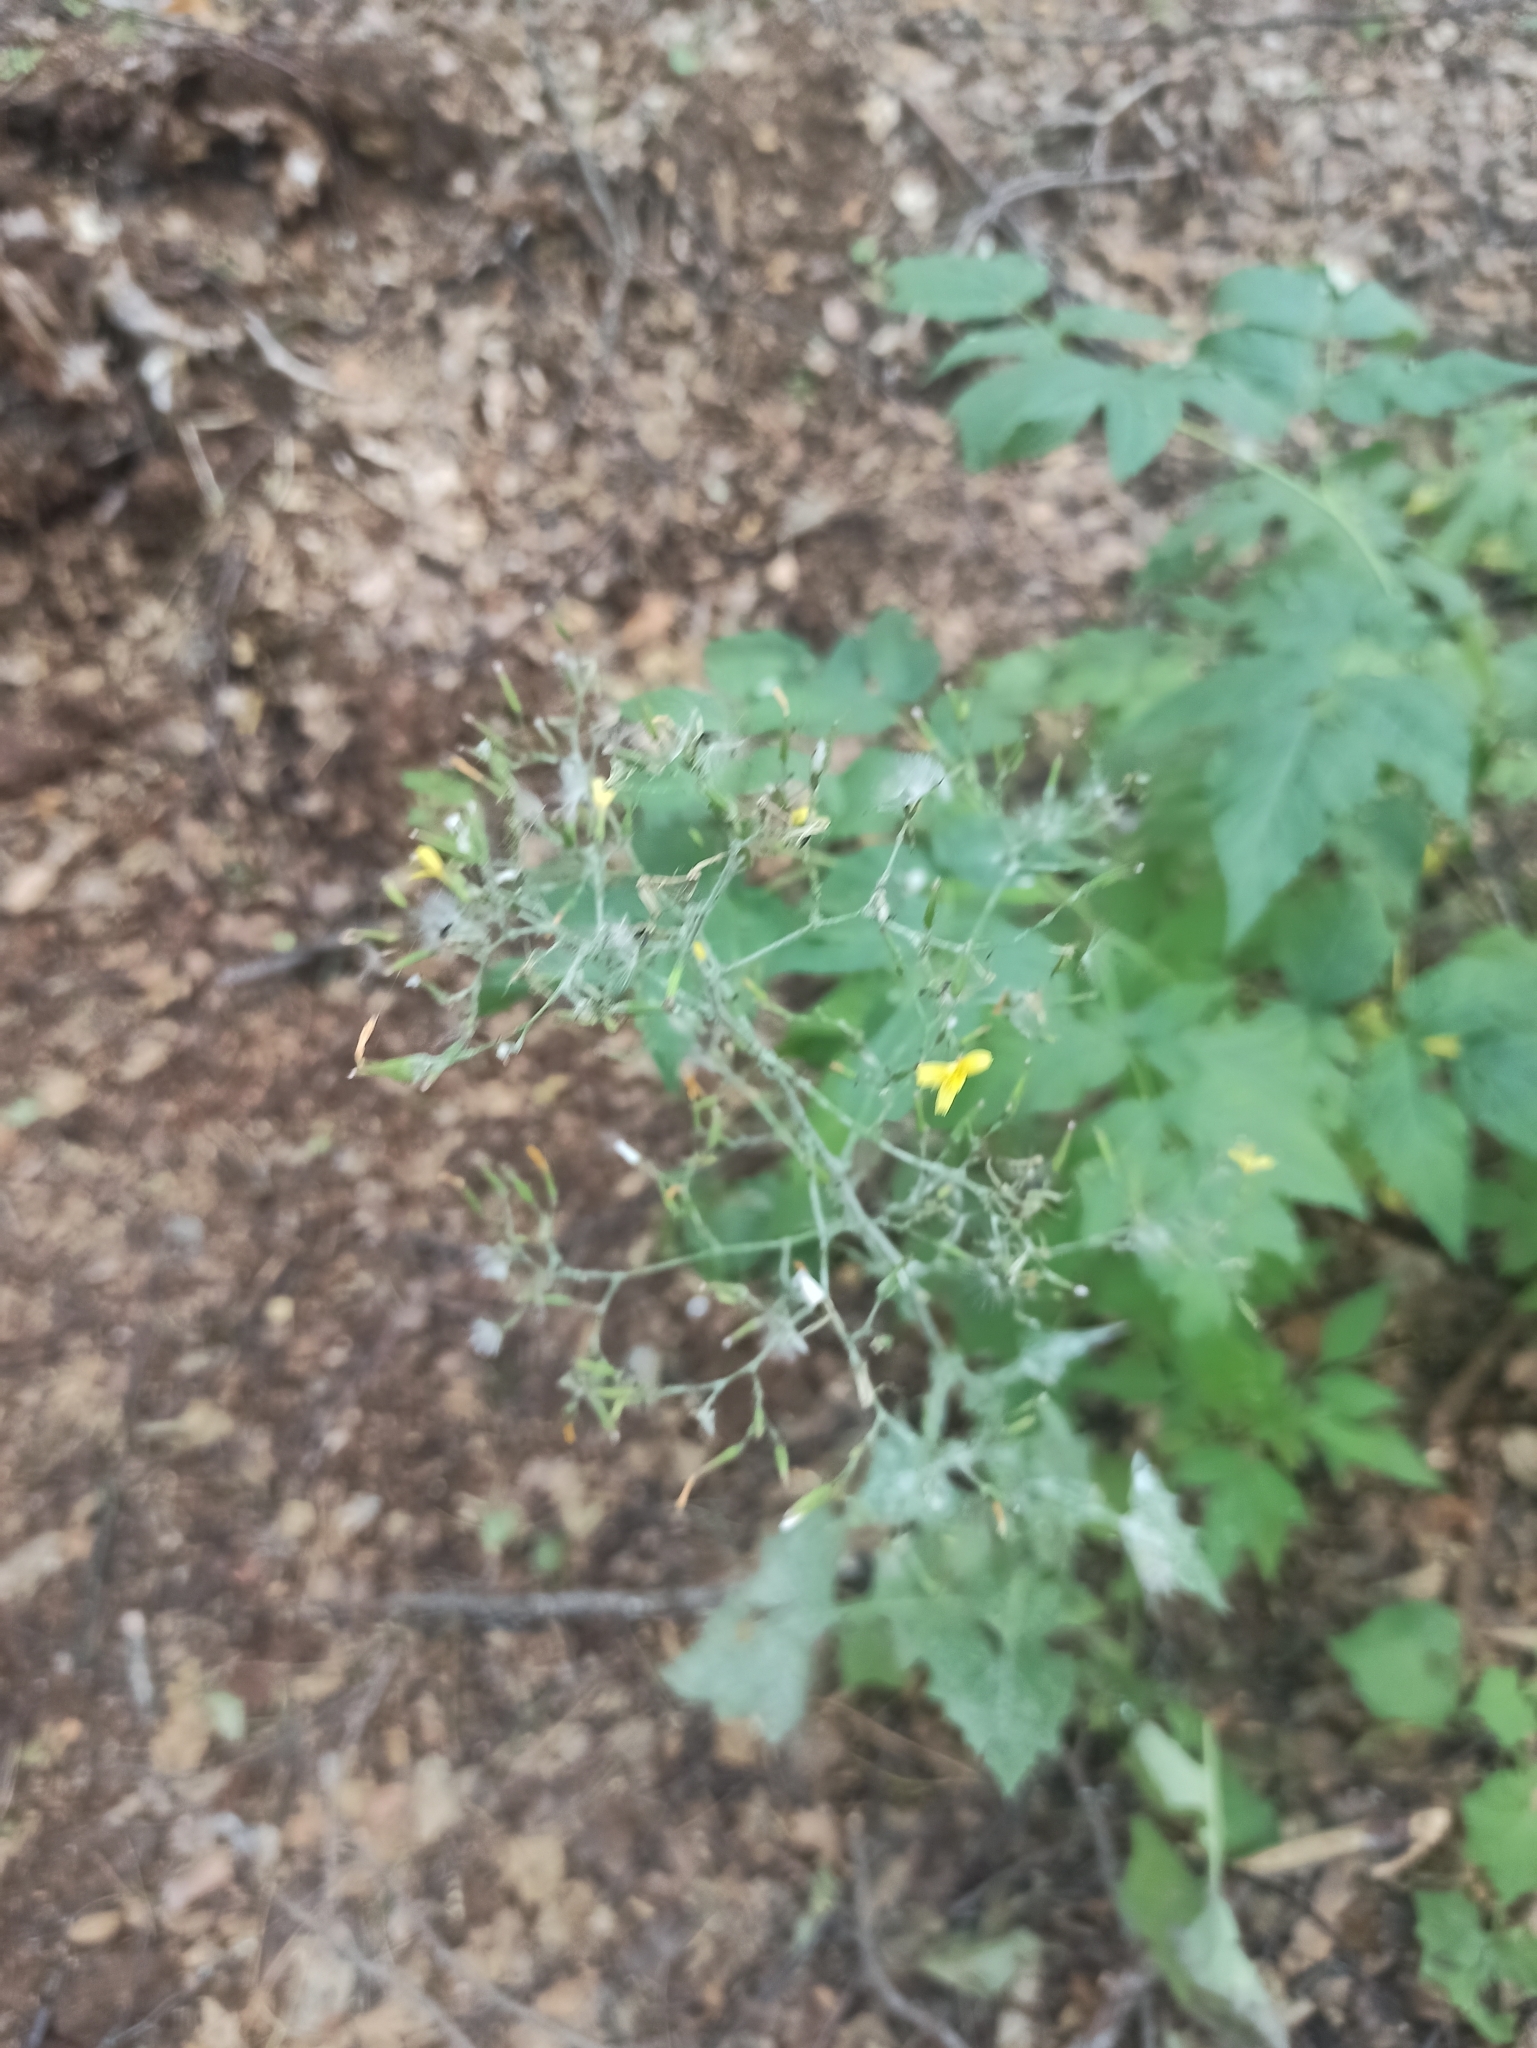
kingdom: Plantae
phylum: Tracheophyta
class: Magnoliopsida
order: Asterales
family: Asteraceae
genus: Mycelis
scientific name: Mycelis muralis
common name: Wall lettuce
